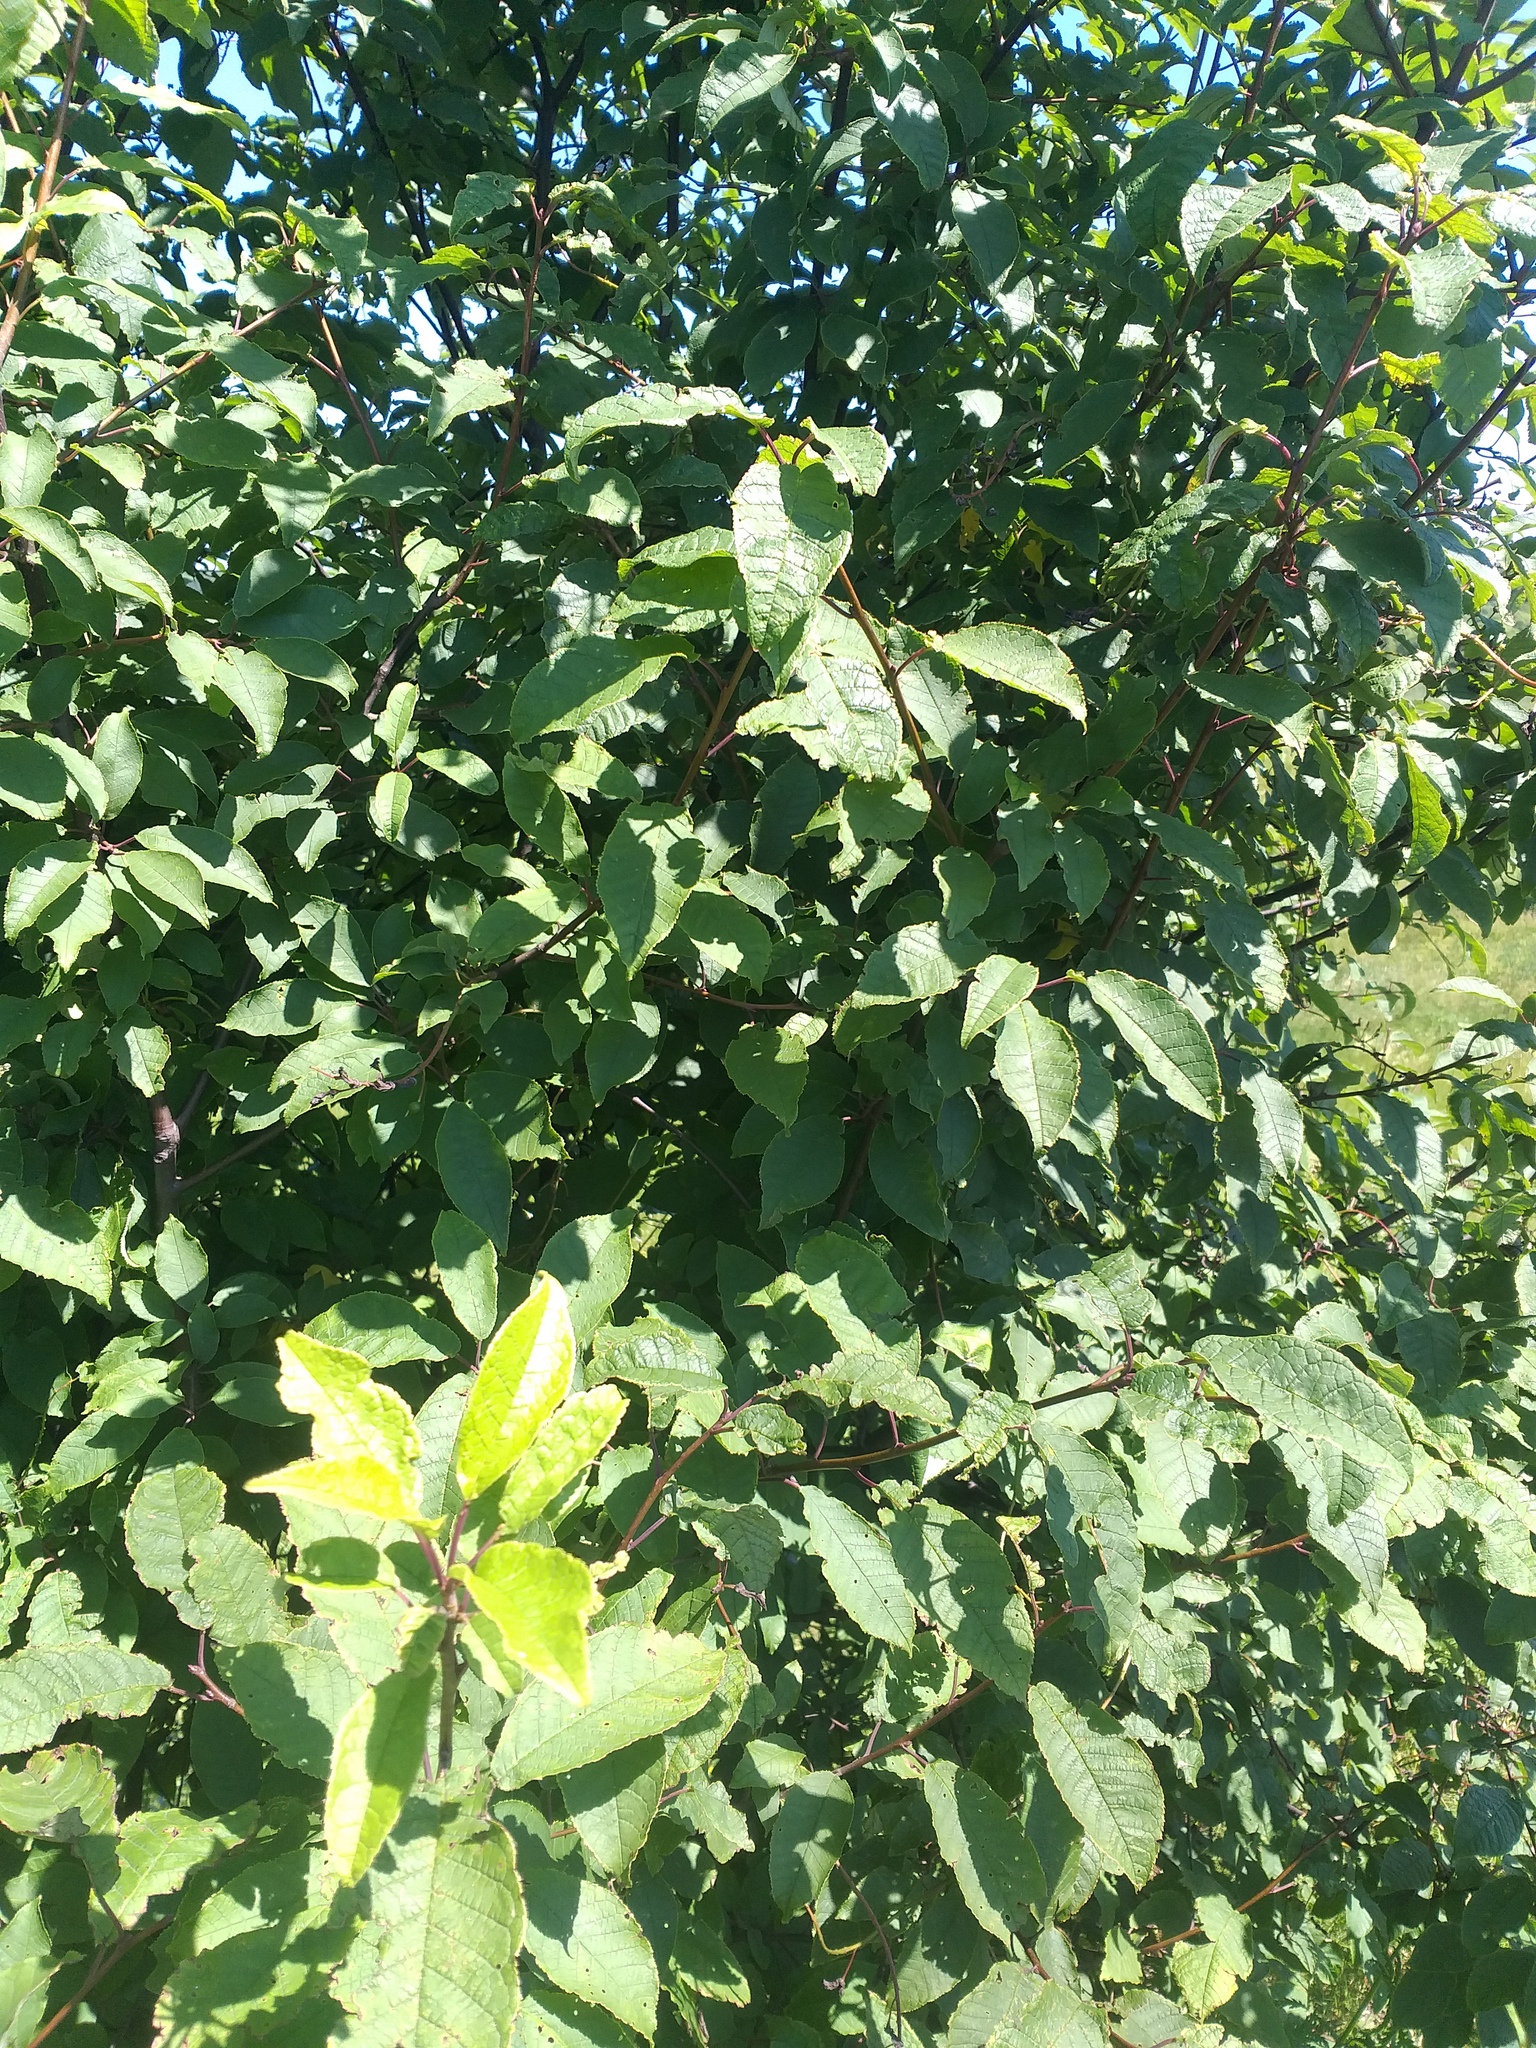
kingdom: Plantae
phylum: Tracheophyta
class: Magnoliopsida
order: Rosales
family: Rosaceae
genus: Prunus
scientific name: Prunus padus
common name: Bird cherry
